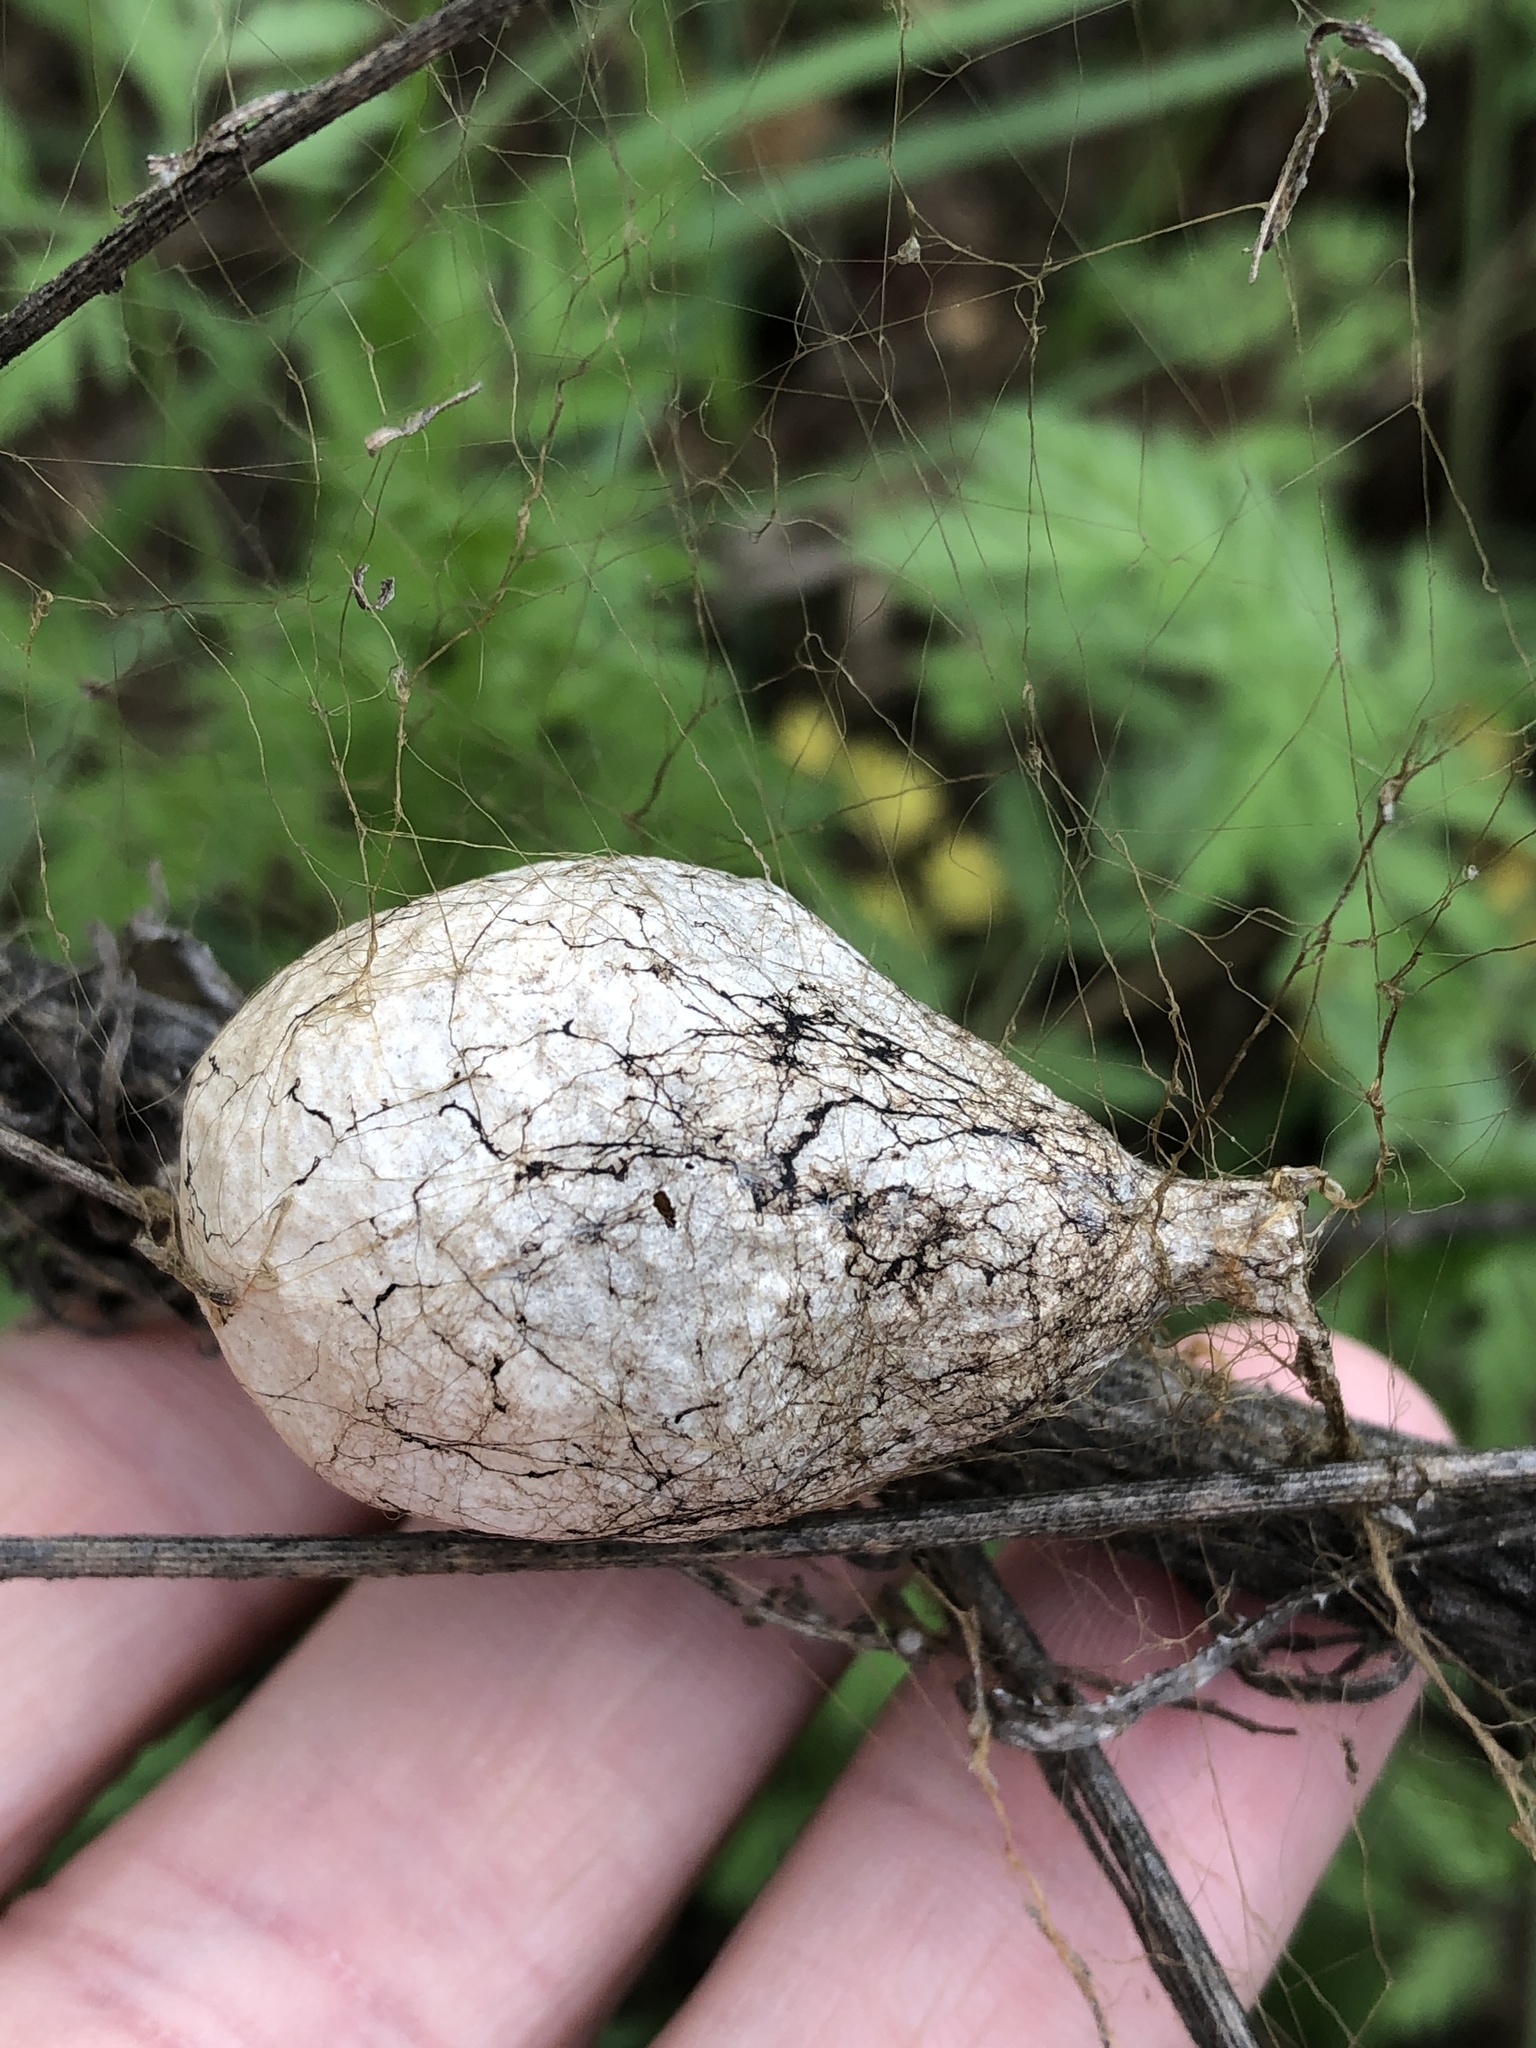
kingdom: Animalia
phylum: Arthropoda
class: Arachnida
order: Araneae
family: Araneidae
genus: Argiope
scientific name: Argiope aurantia
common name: Orb weavers
